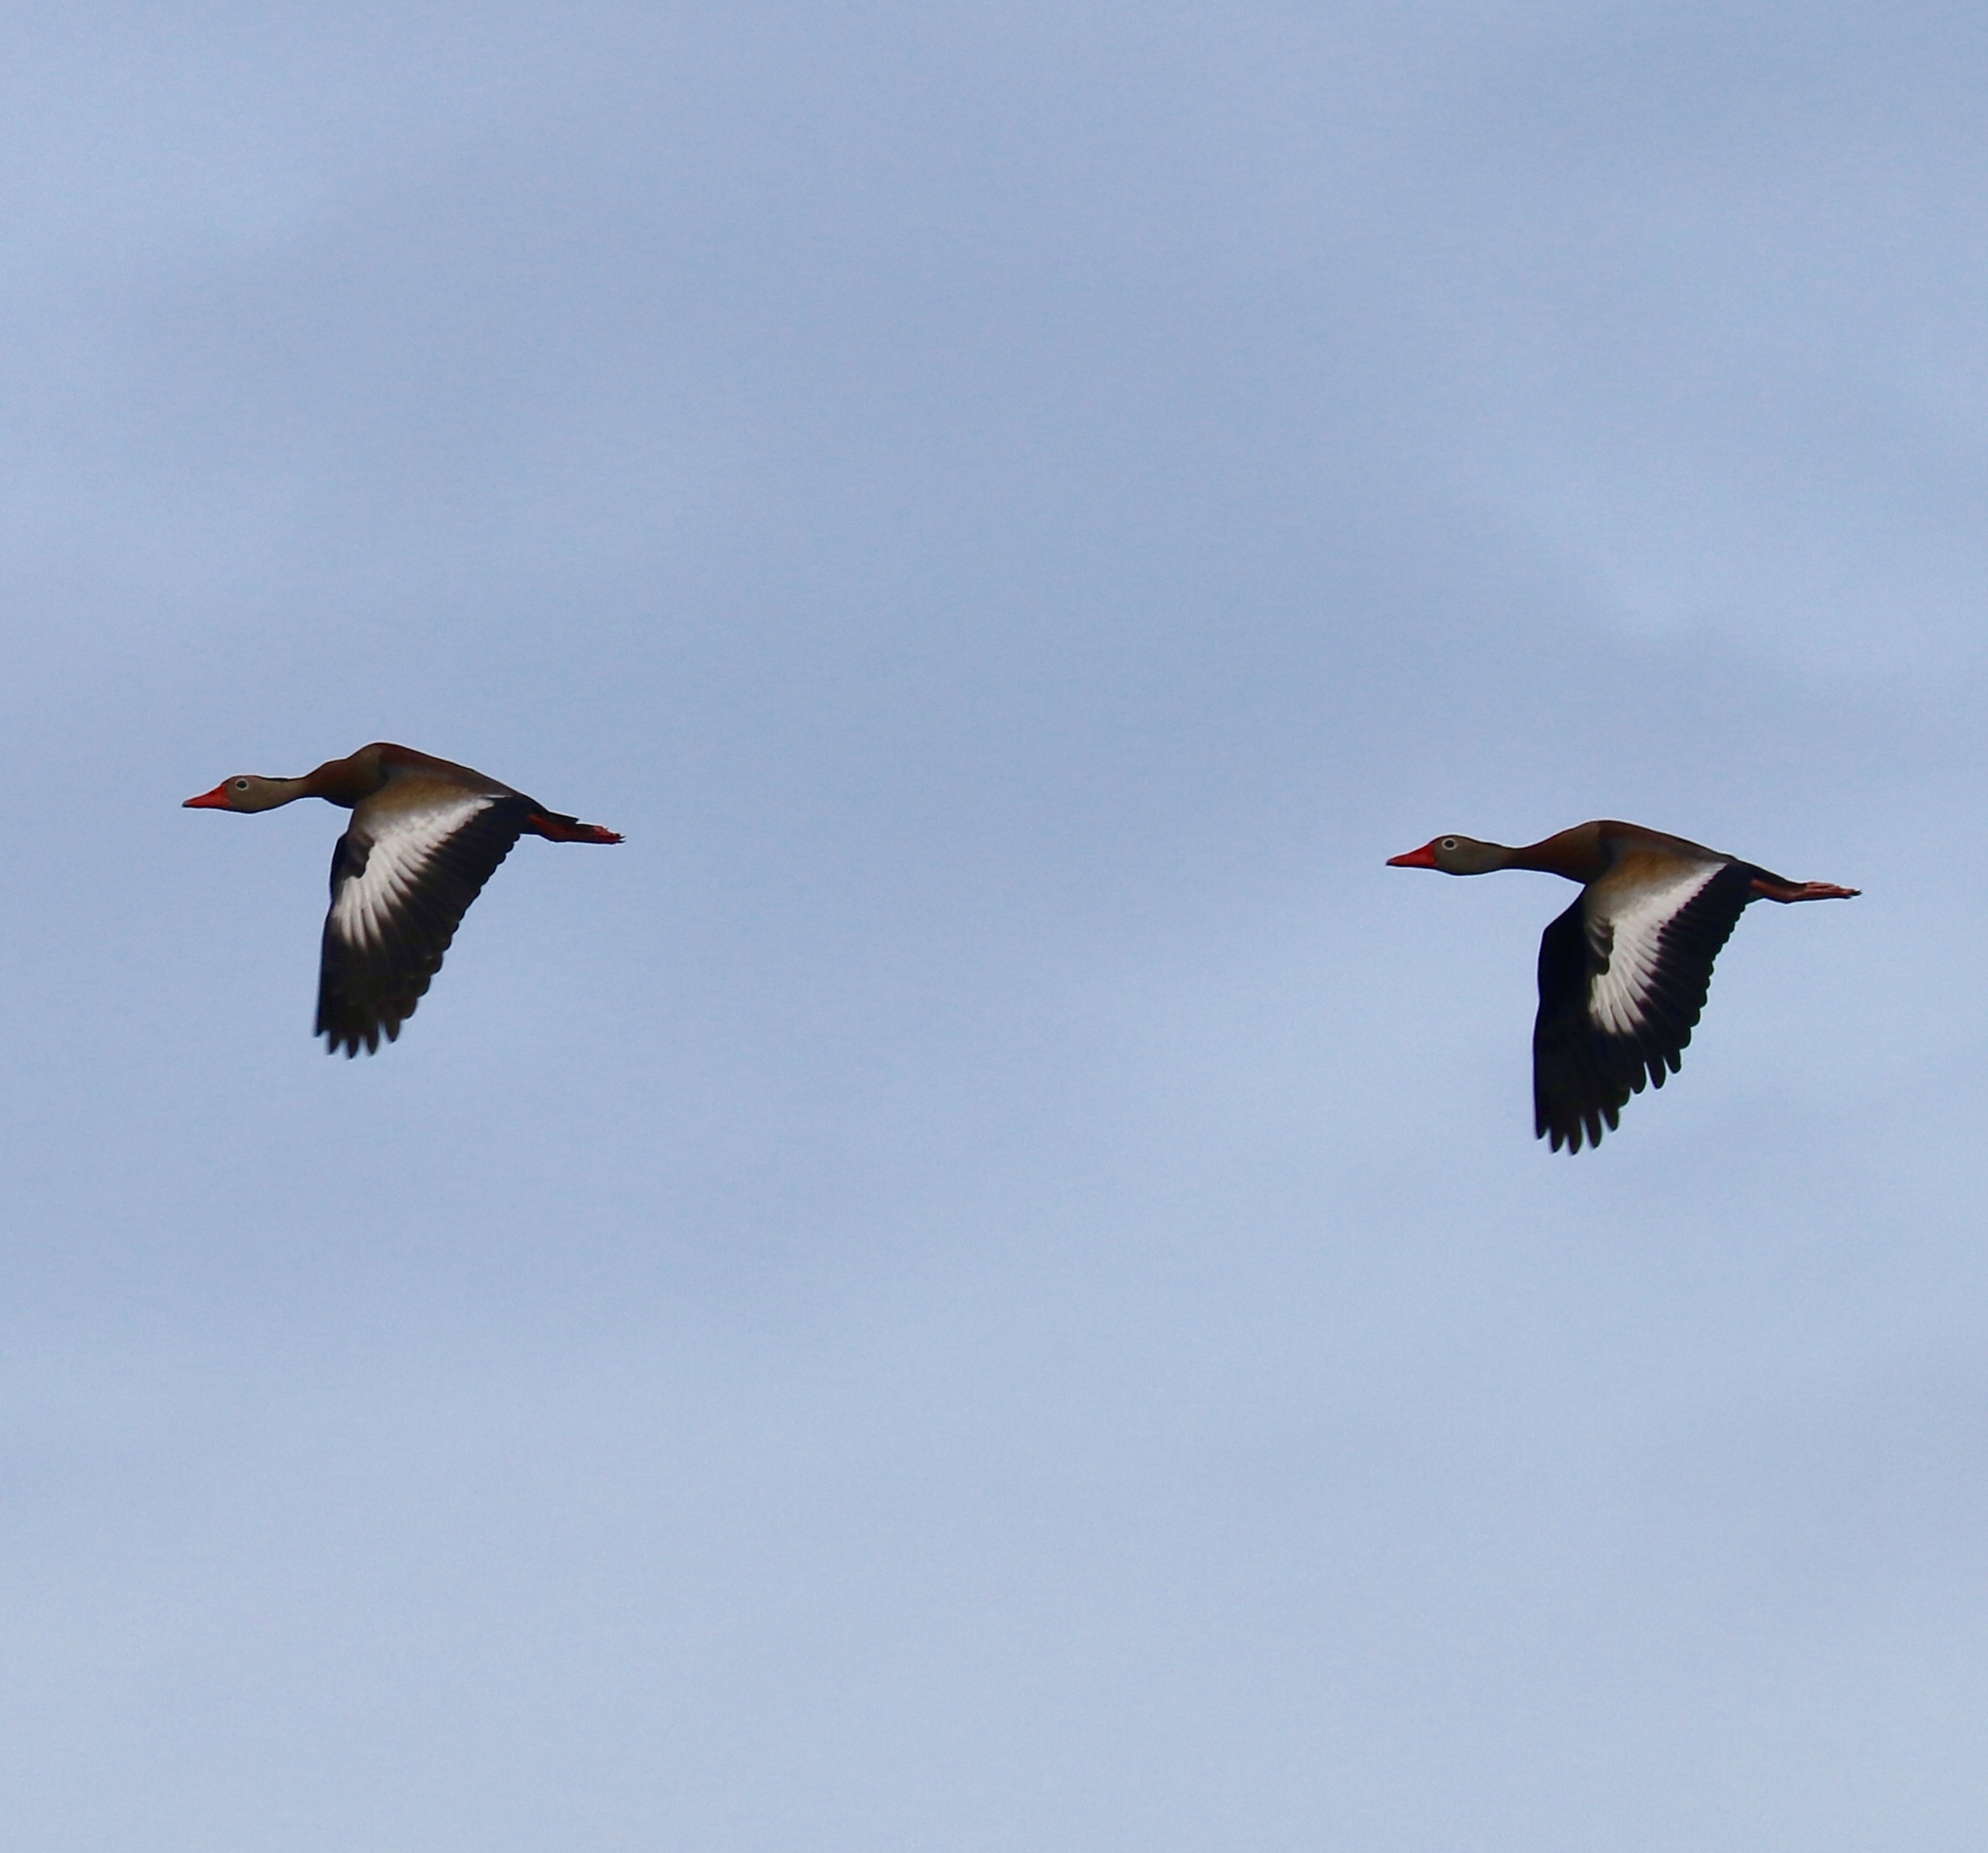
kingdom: Animalia
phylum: Chordata
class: Aves
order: Anseriformes
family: Anatidae
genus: Dendrocygna
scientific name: Dendrocygna autumnalis
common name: Black-bellied whistling duck
